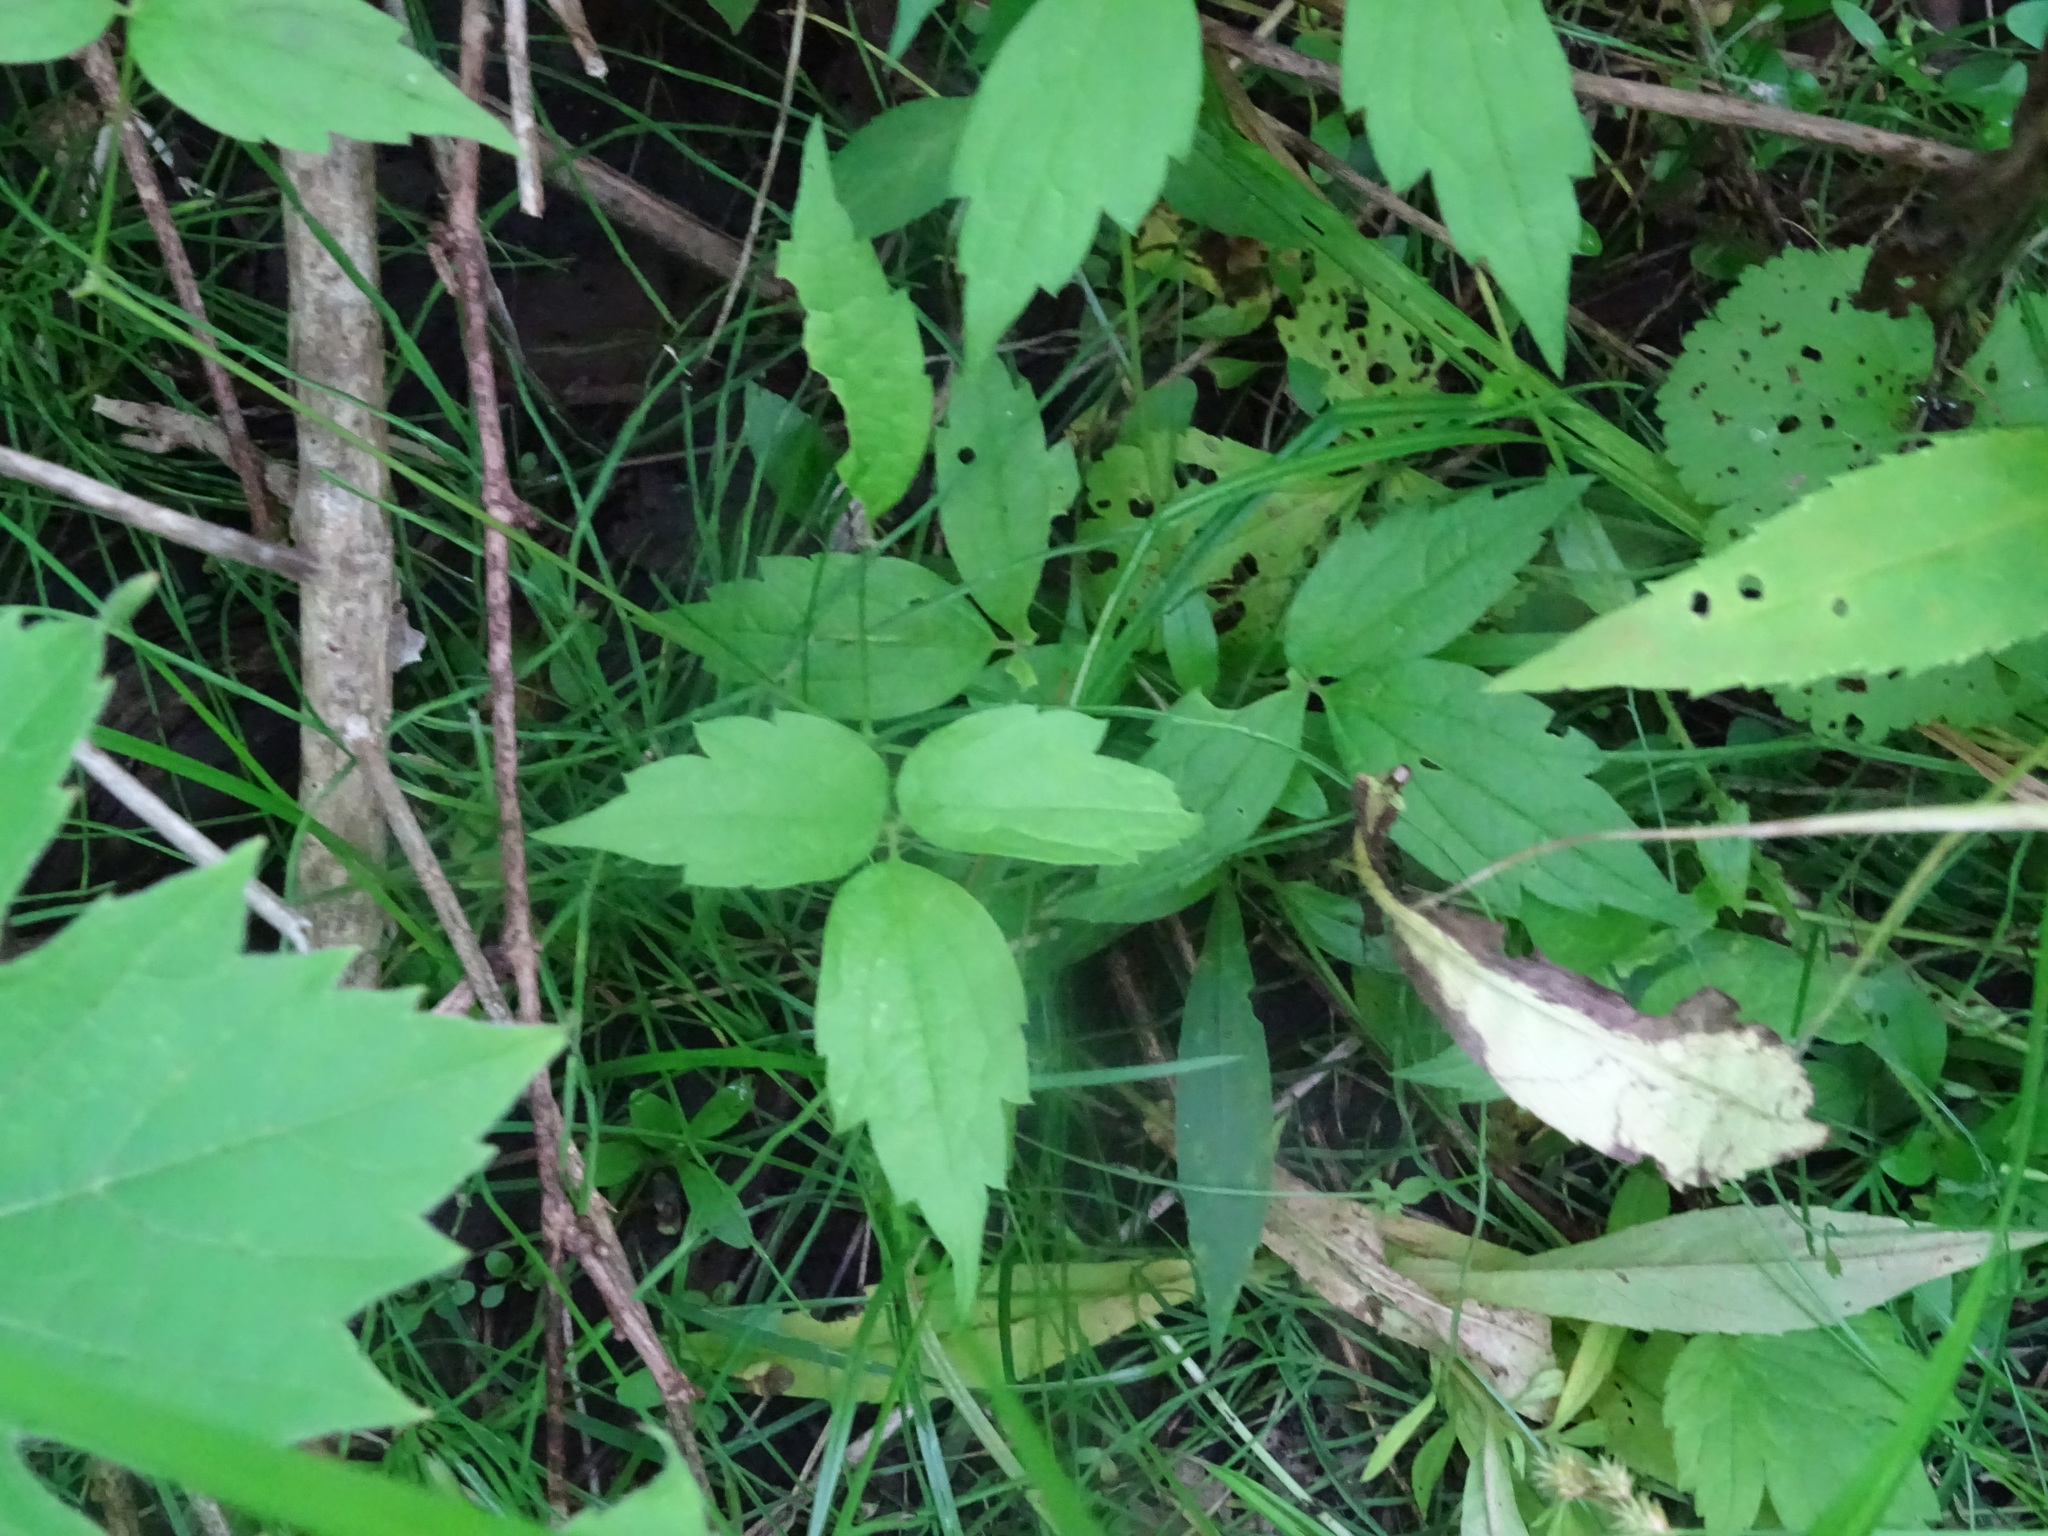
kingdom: Plantae
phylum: Tracheophyta
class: Magnoliopsida
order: Ranunculales
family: Ranunculaceae
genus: Clematis
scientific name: Clematis virginiana
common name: Virgin's-bower
